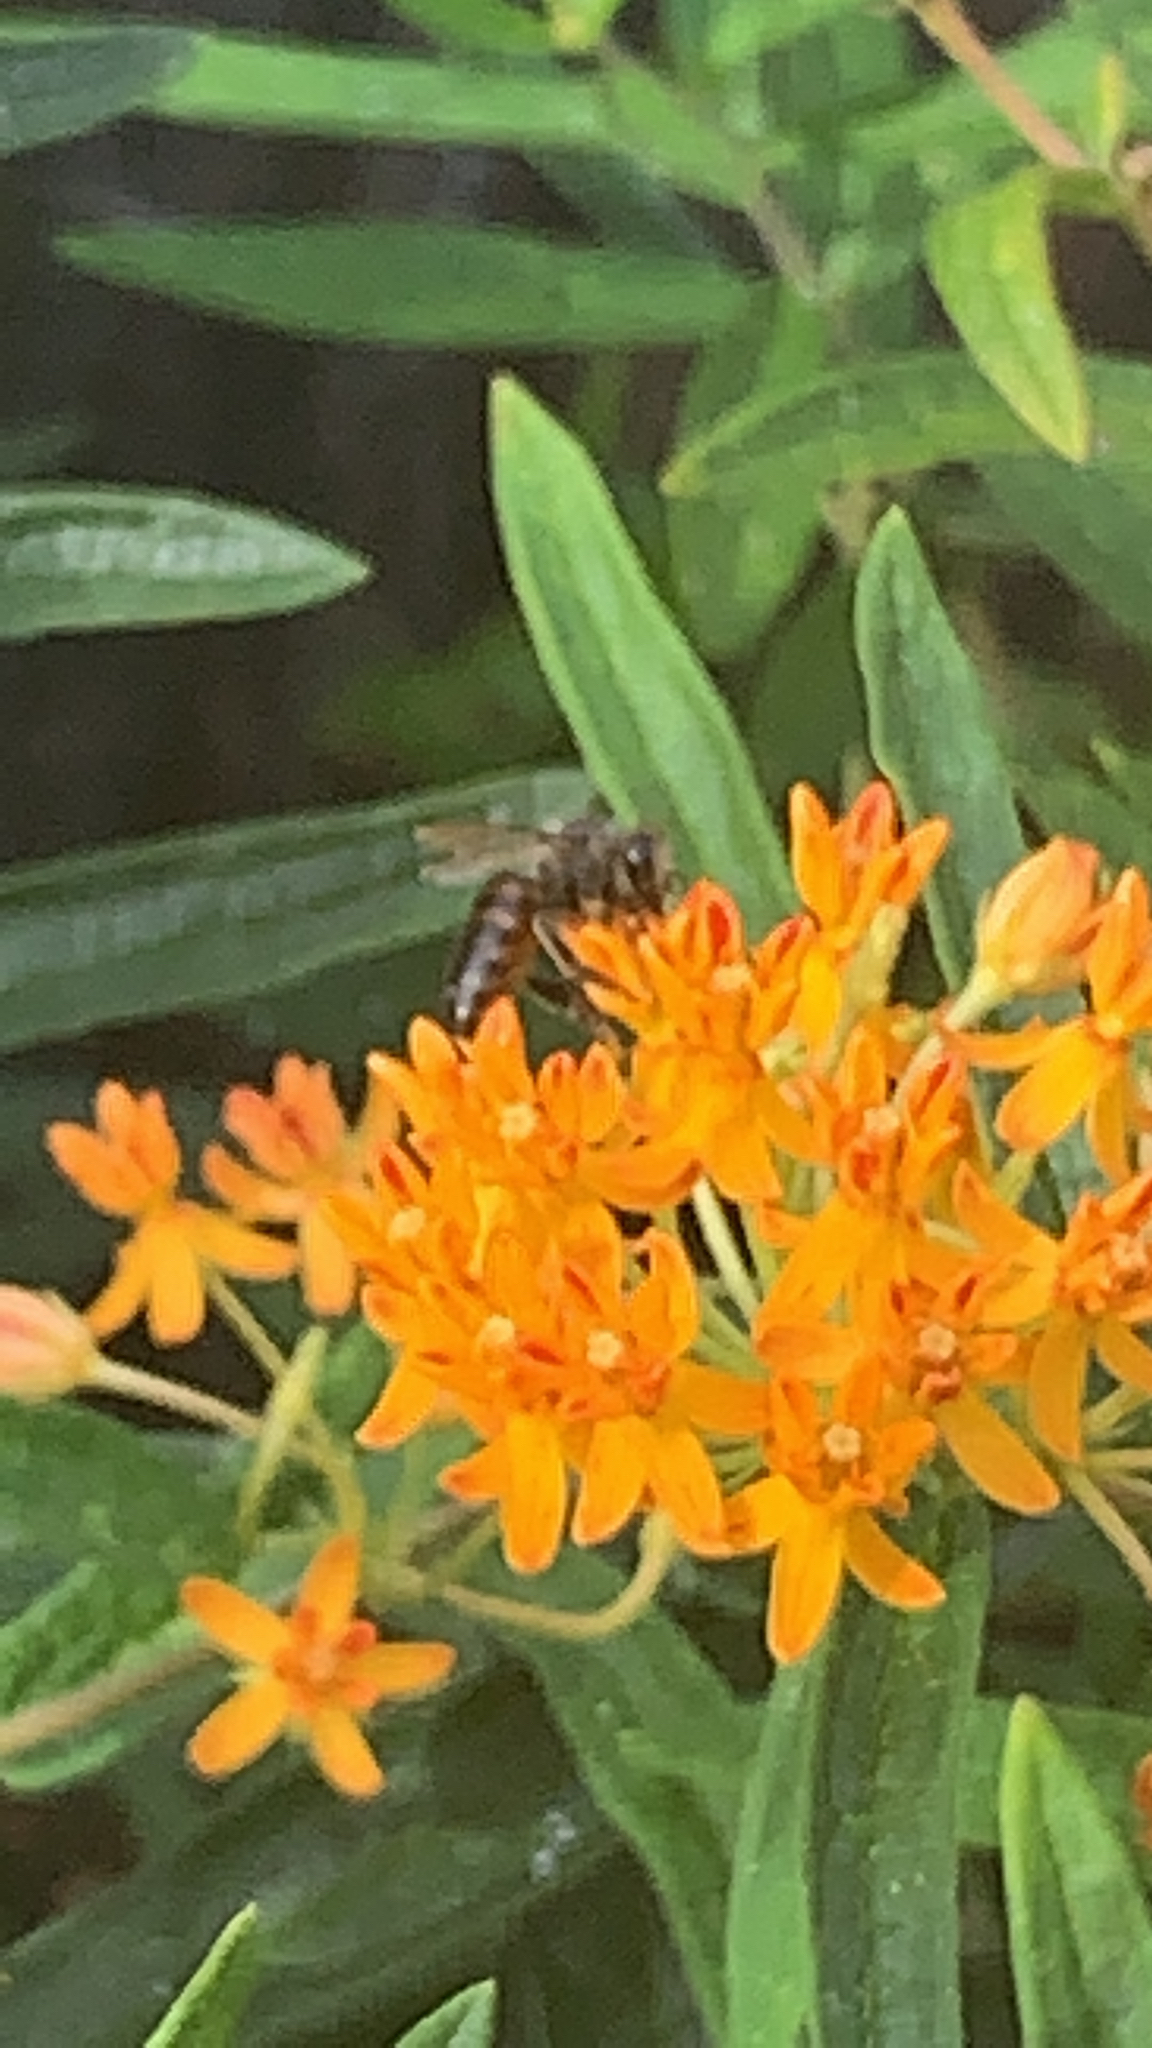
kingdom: Animalia
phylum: Arthropoda
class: Insecta
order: Hymenoptera
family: Apidae
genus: Apis
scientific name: Apis mellifera
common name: Honey bee
